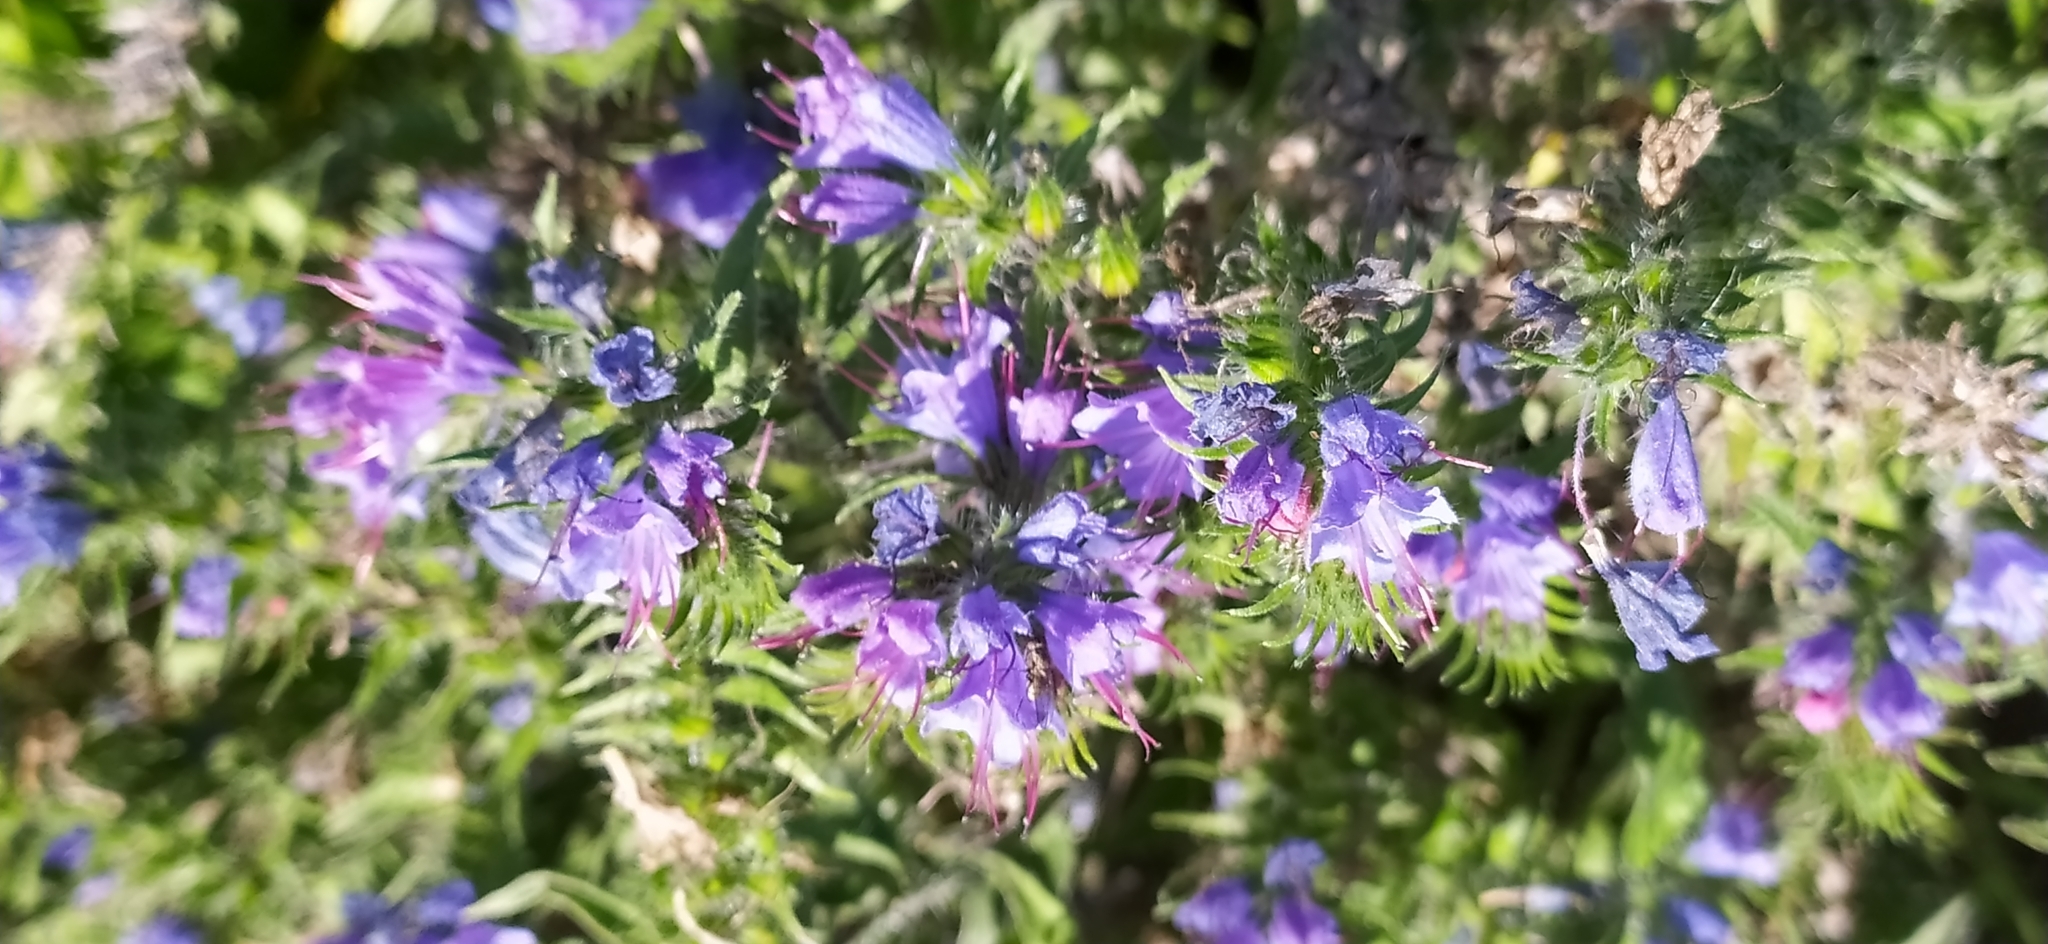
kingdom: Plantae
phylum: Tracheophyta
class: Magnoliopsida
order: Boraginales
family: Boraginaceae
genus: Echium
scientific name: Echium vulgare
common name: Common viper's bugloss
